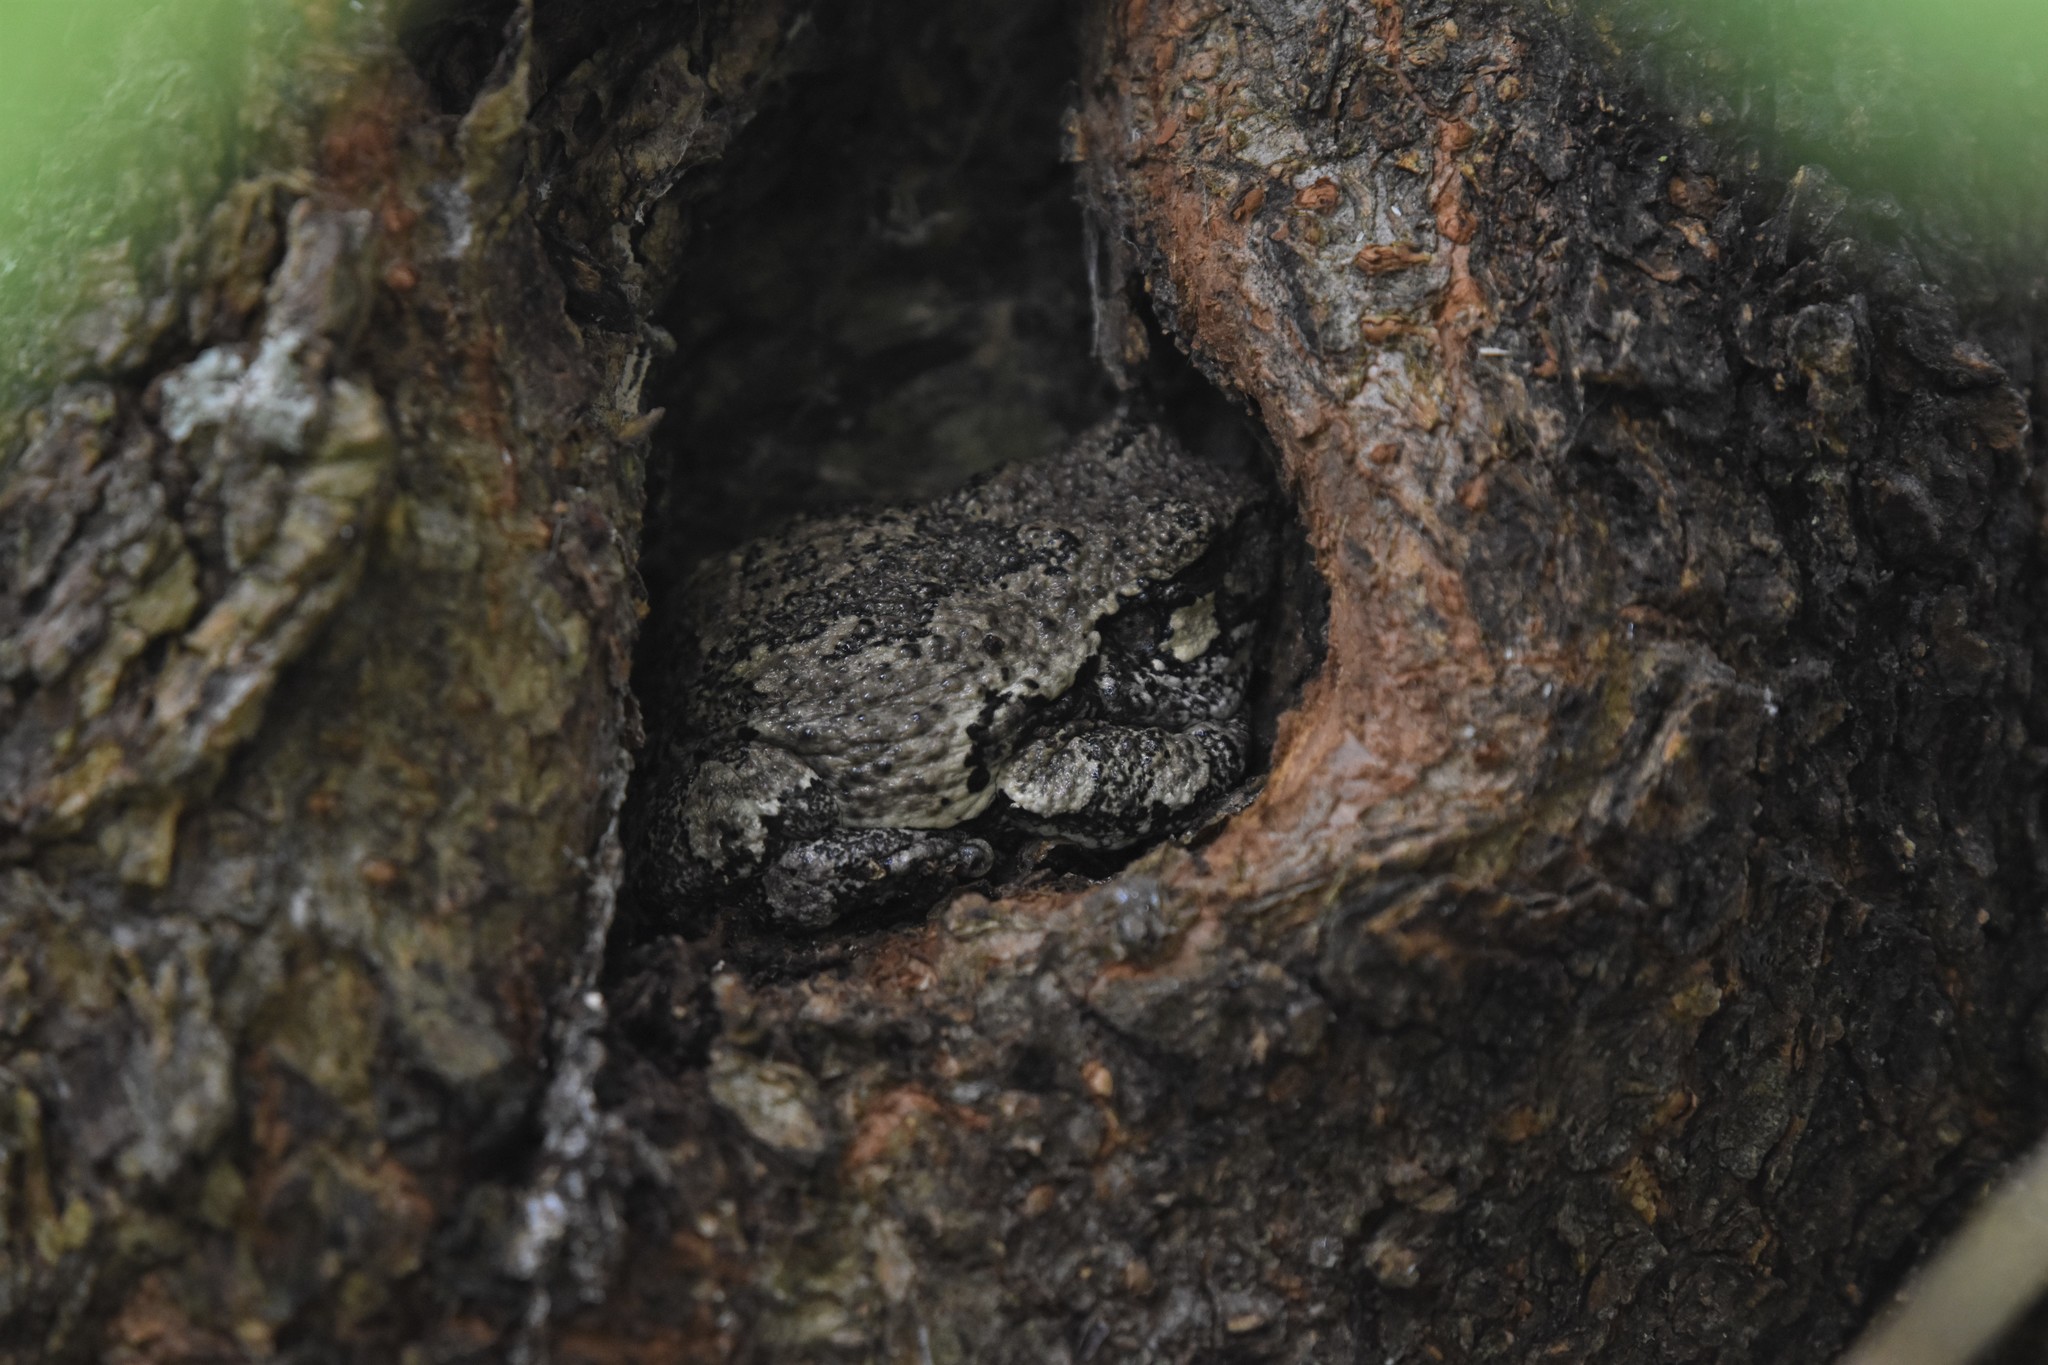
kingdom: Animalia
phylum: Chordata
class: Amphibia
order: Anura
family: Hylidae
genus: Dryophytes
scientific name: Dryophytes versicolor
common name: Gray treefrog
